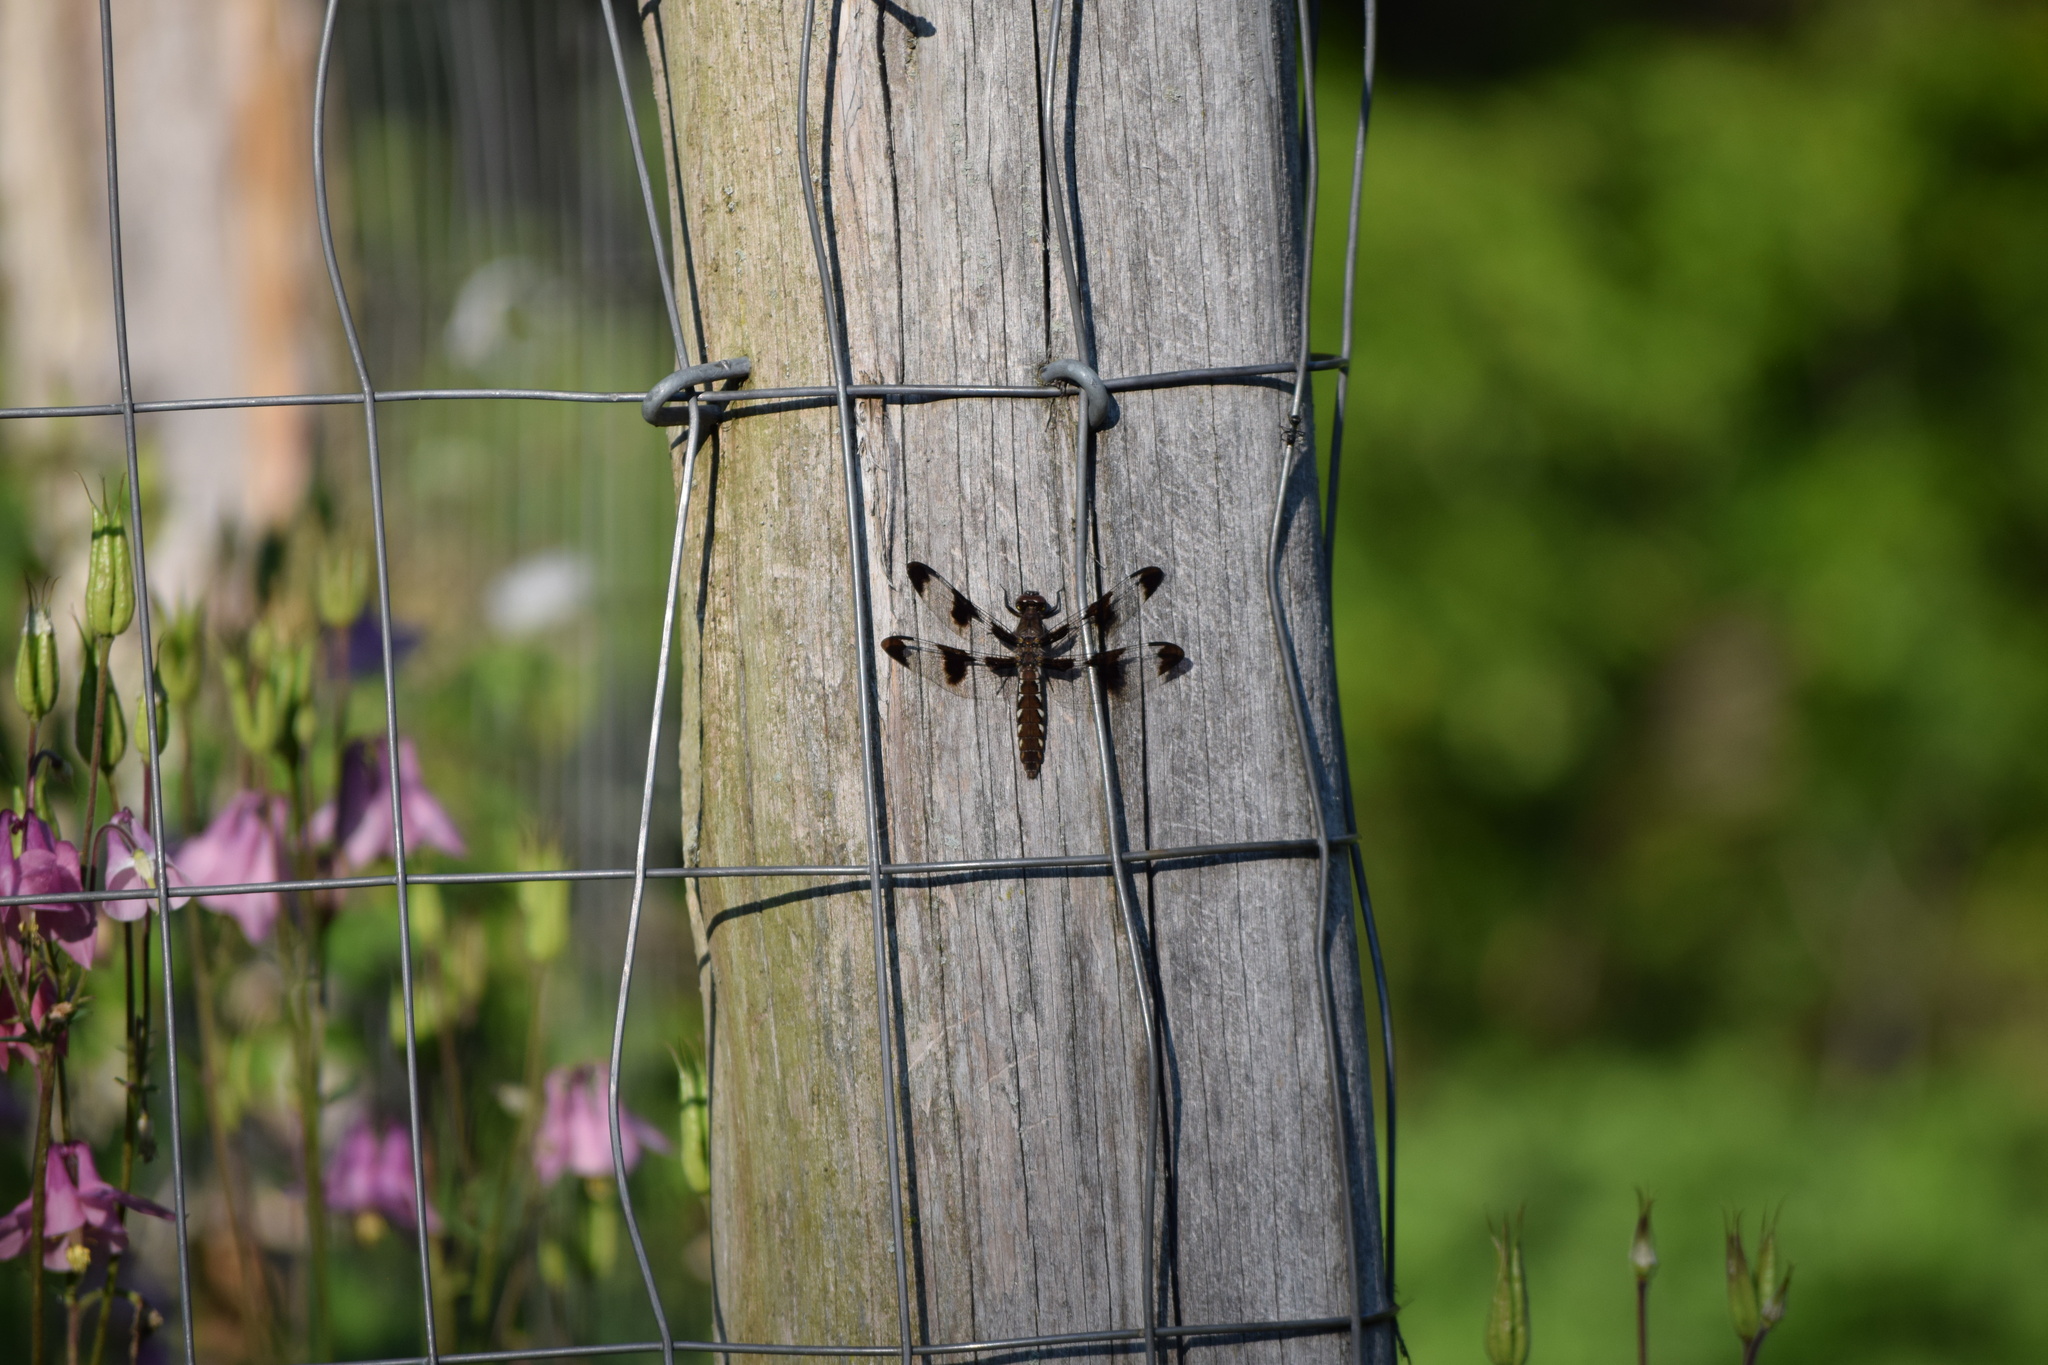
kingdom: Animalia
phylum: Arthropoda
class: Insecta
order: Odonata
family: Libellulidae
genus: Plathemis
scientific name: Plathemis lydia
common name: Common whitetail
